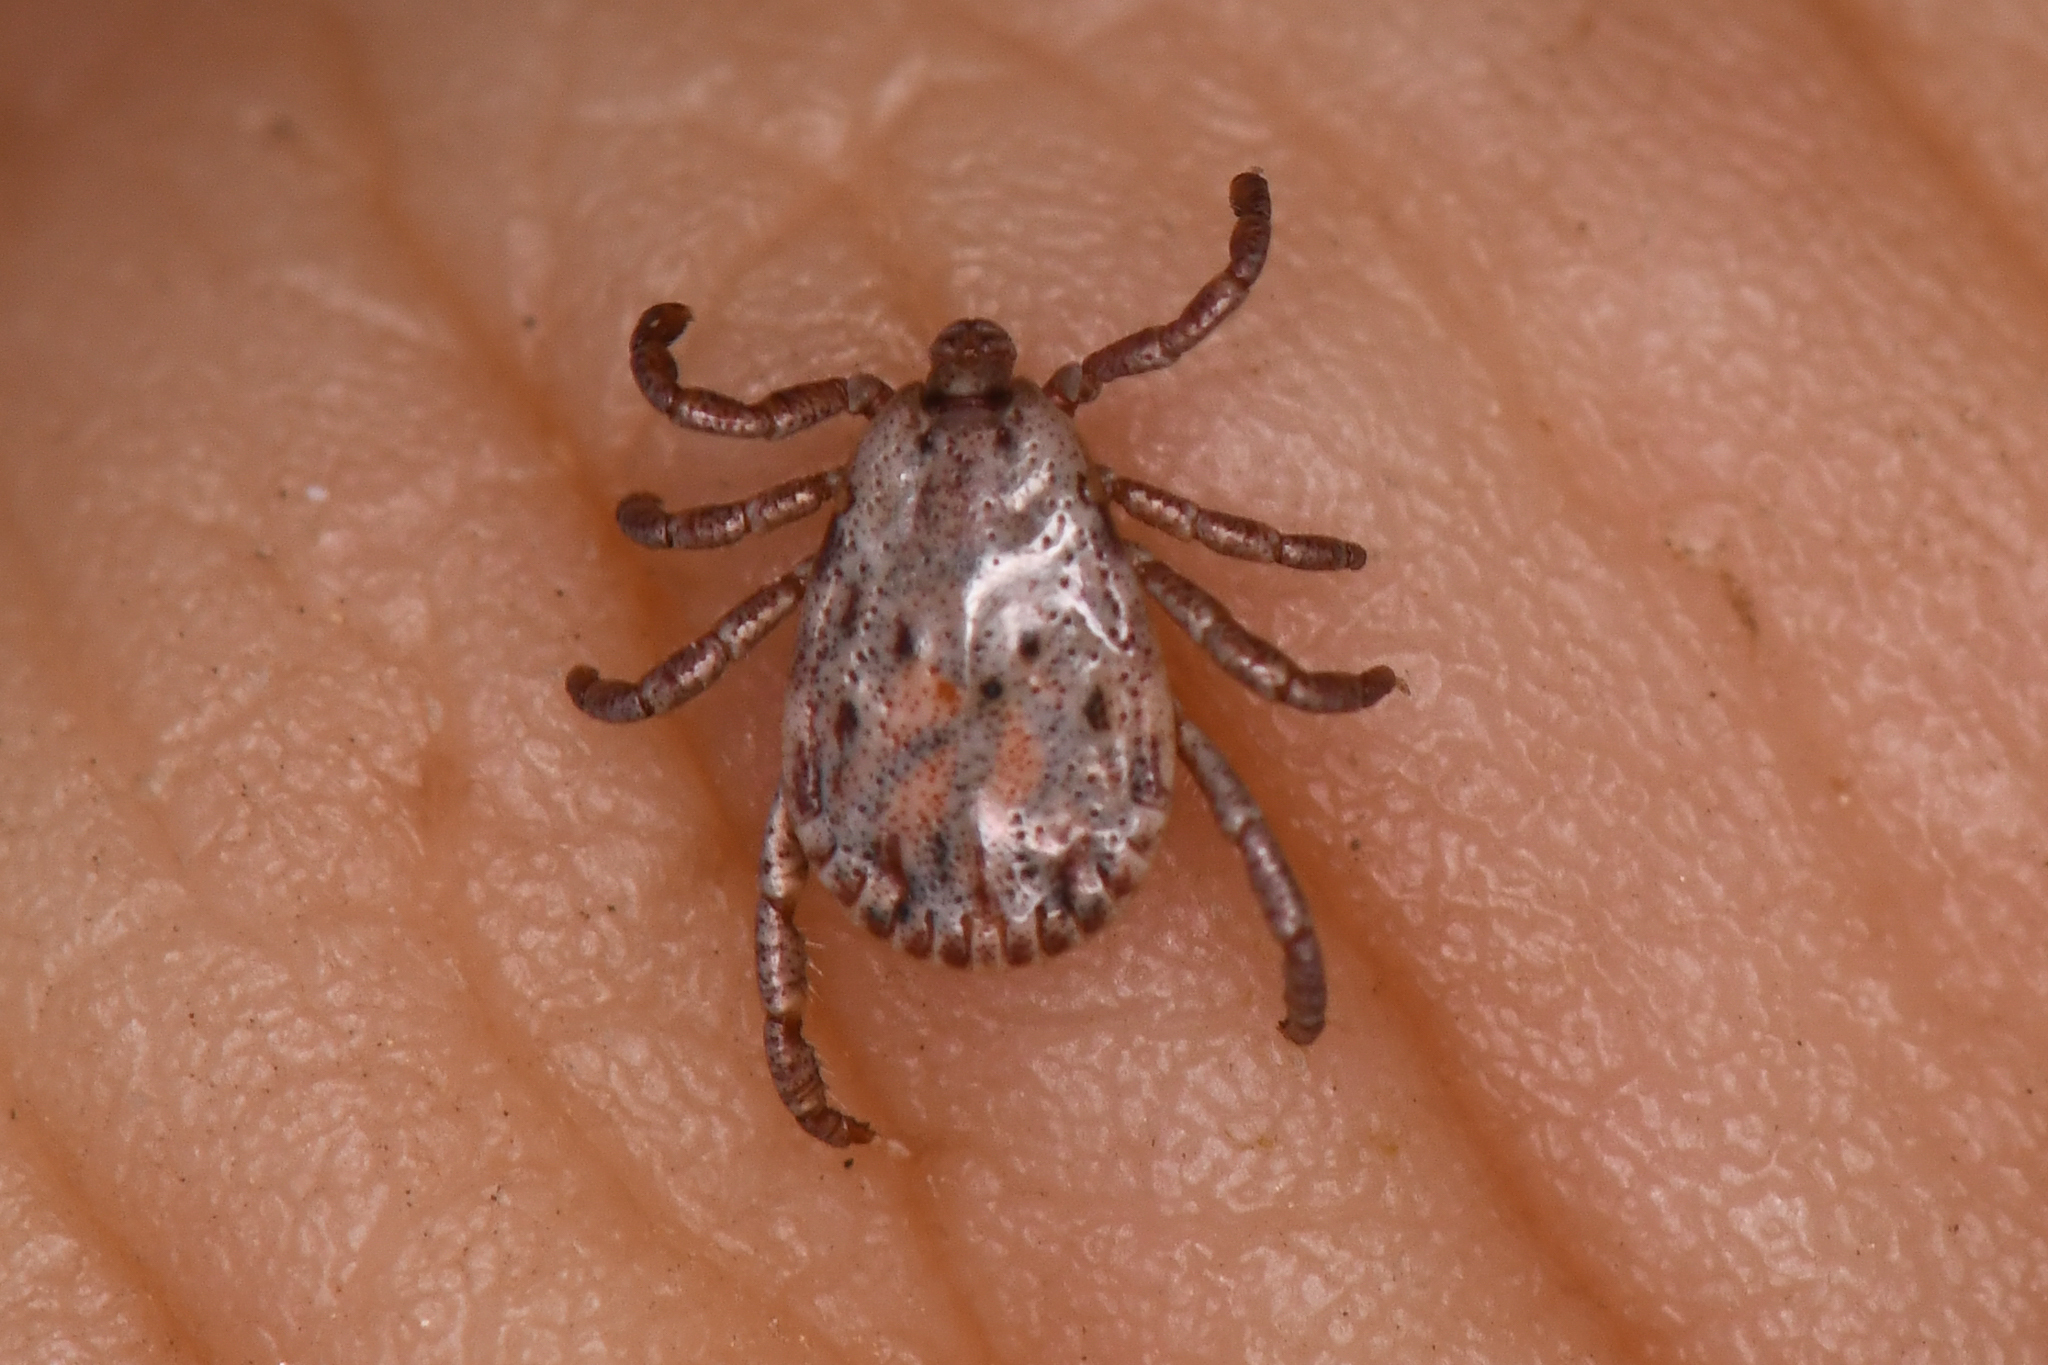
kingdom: Animalia
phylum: Arthropoda
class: Arachnida
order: Ixodida
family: Ixodidae
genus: Dermacentor
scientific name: Dermacentor occidentalis
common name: Net tick
